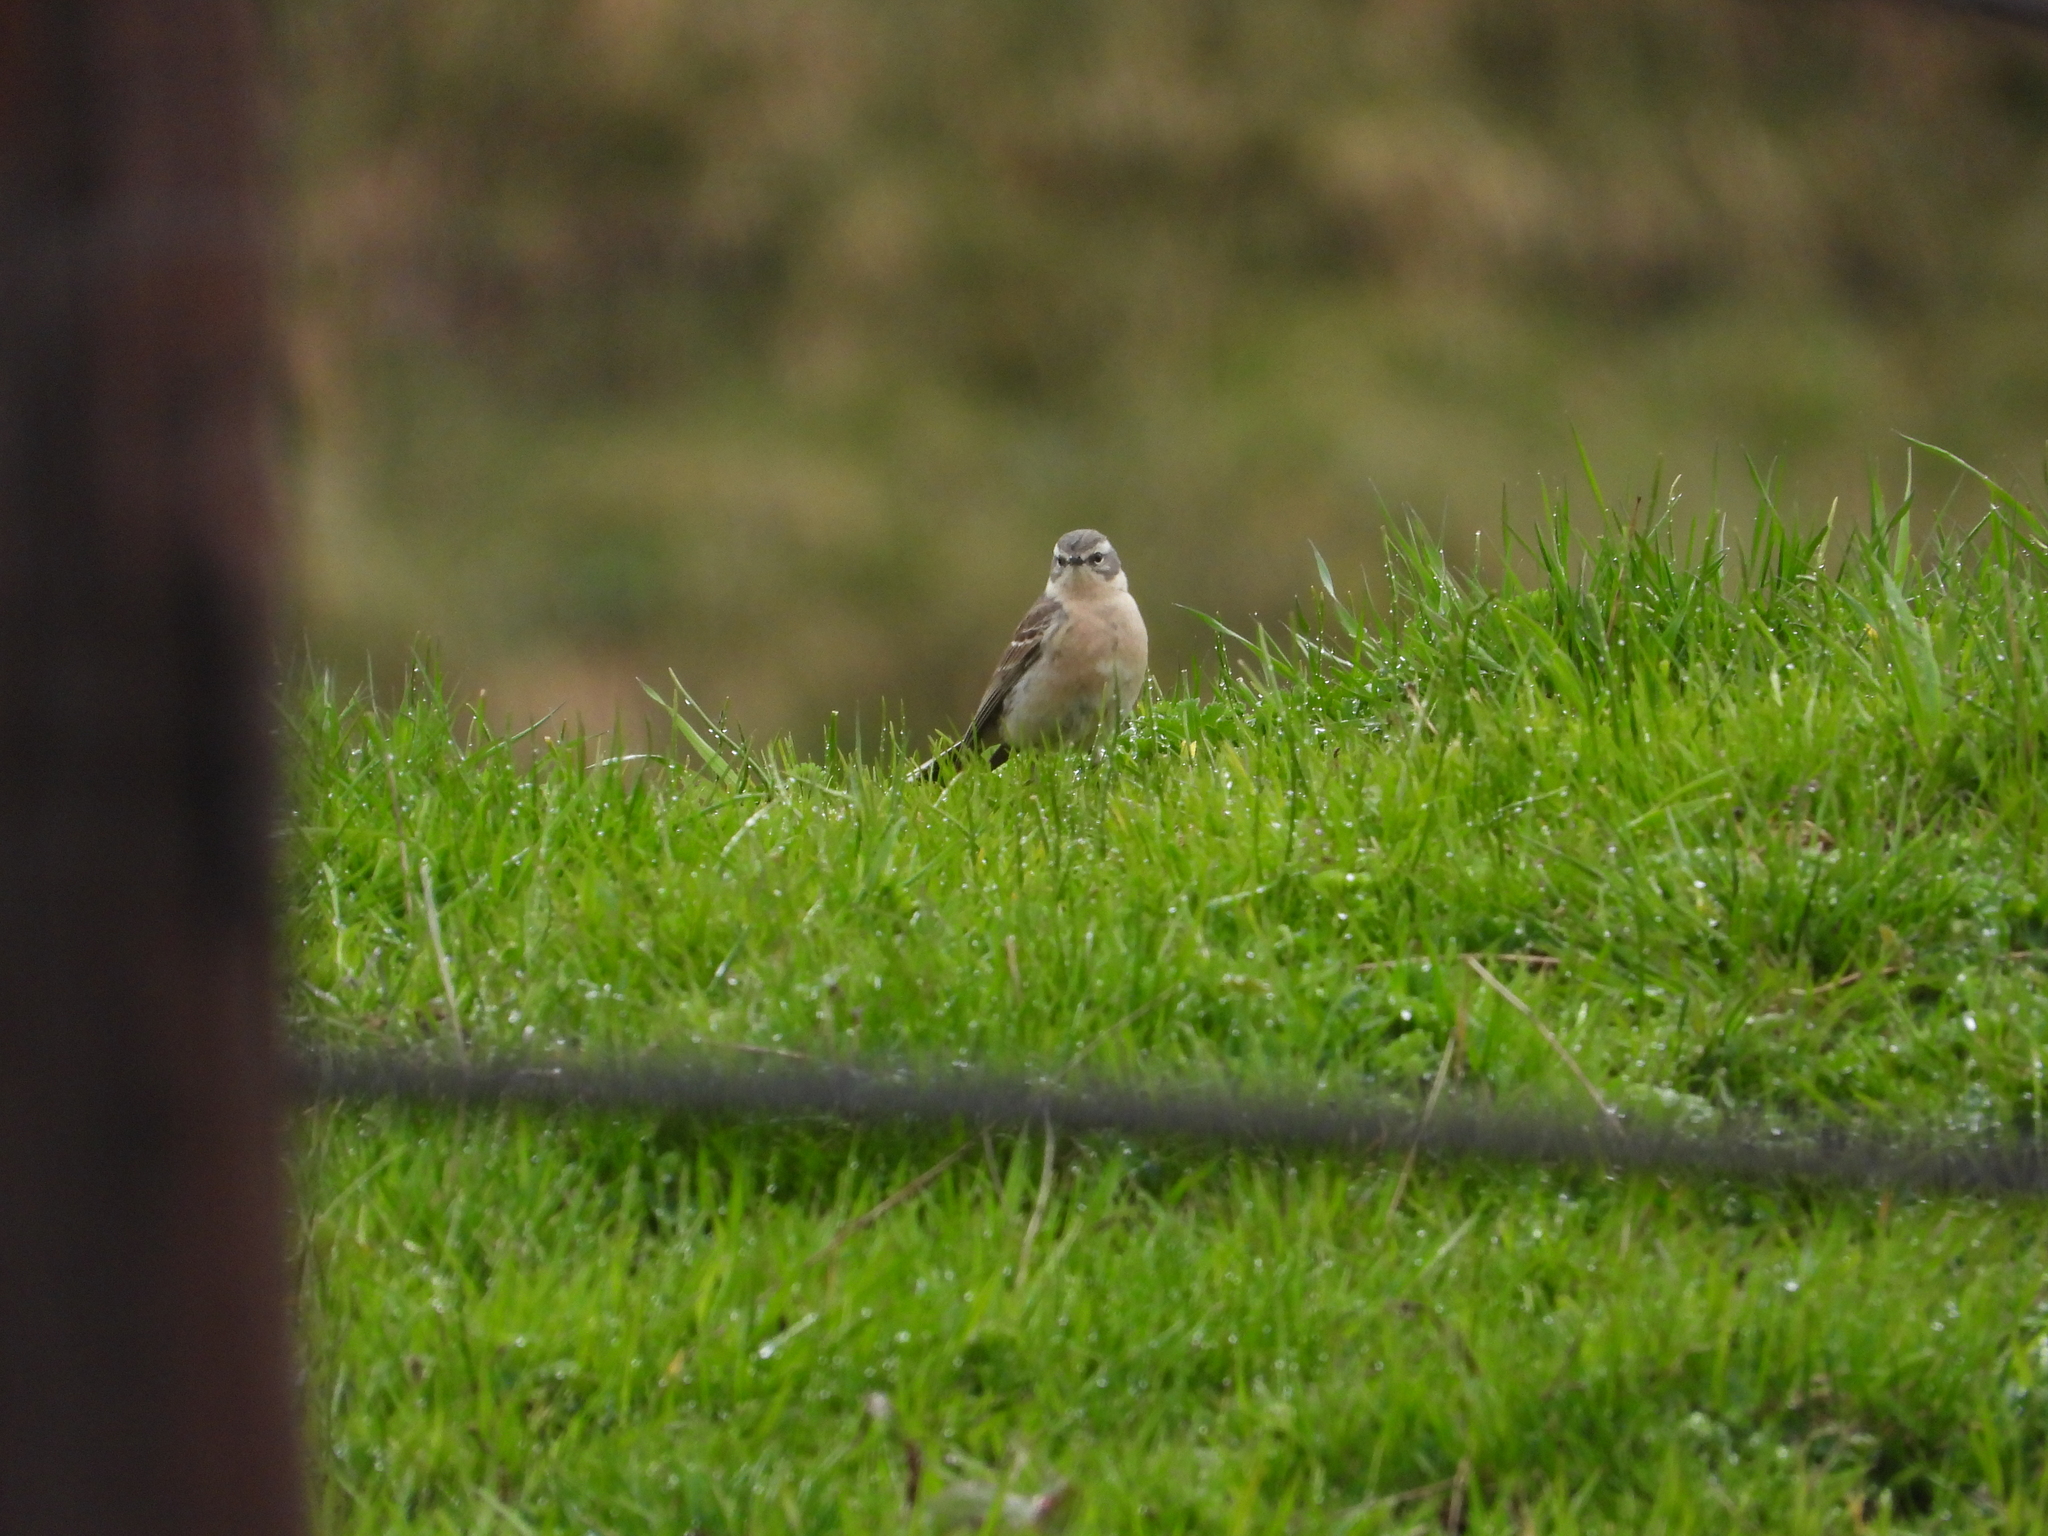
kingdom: Animalia
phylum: Chordata
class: Aves
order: Passeriformes
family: Motacillidae
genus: Anthus
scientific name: Anthus spinoletta
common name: Water pipit
